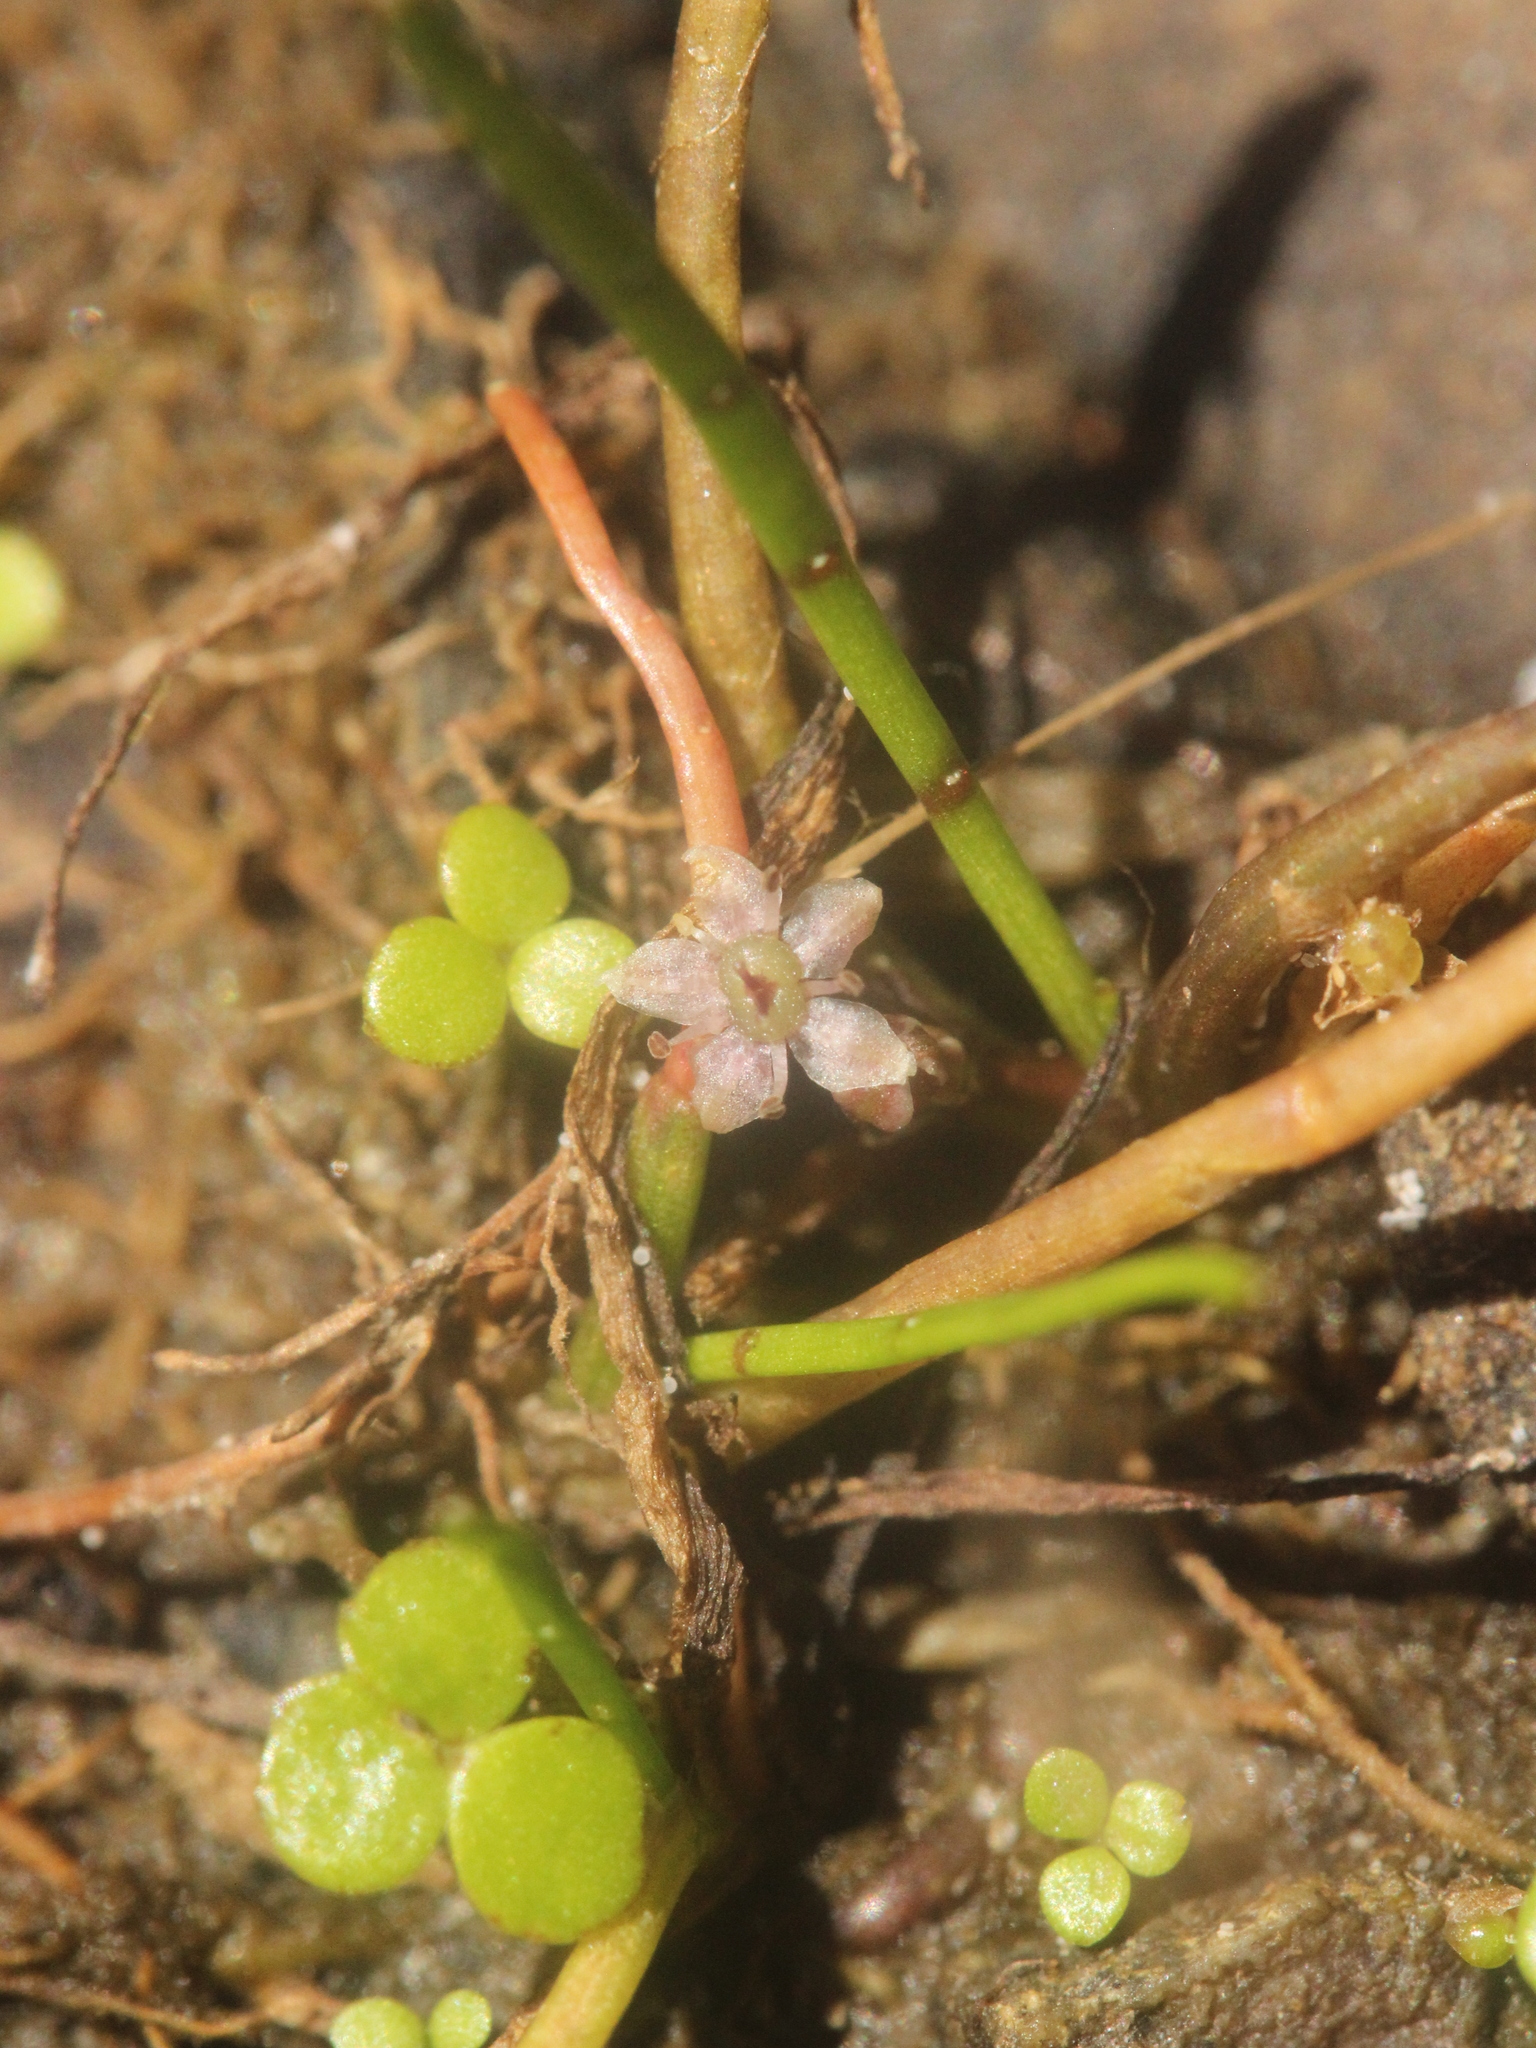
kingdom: Plantae
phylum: Tracheophyta
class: Magnoliopsida
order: Apiales
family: Apiaceae
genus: Lilaeopsis
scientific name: Lilaeopsis novae-zelandiae
